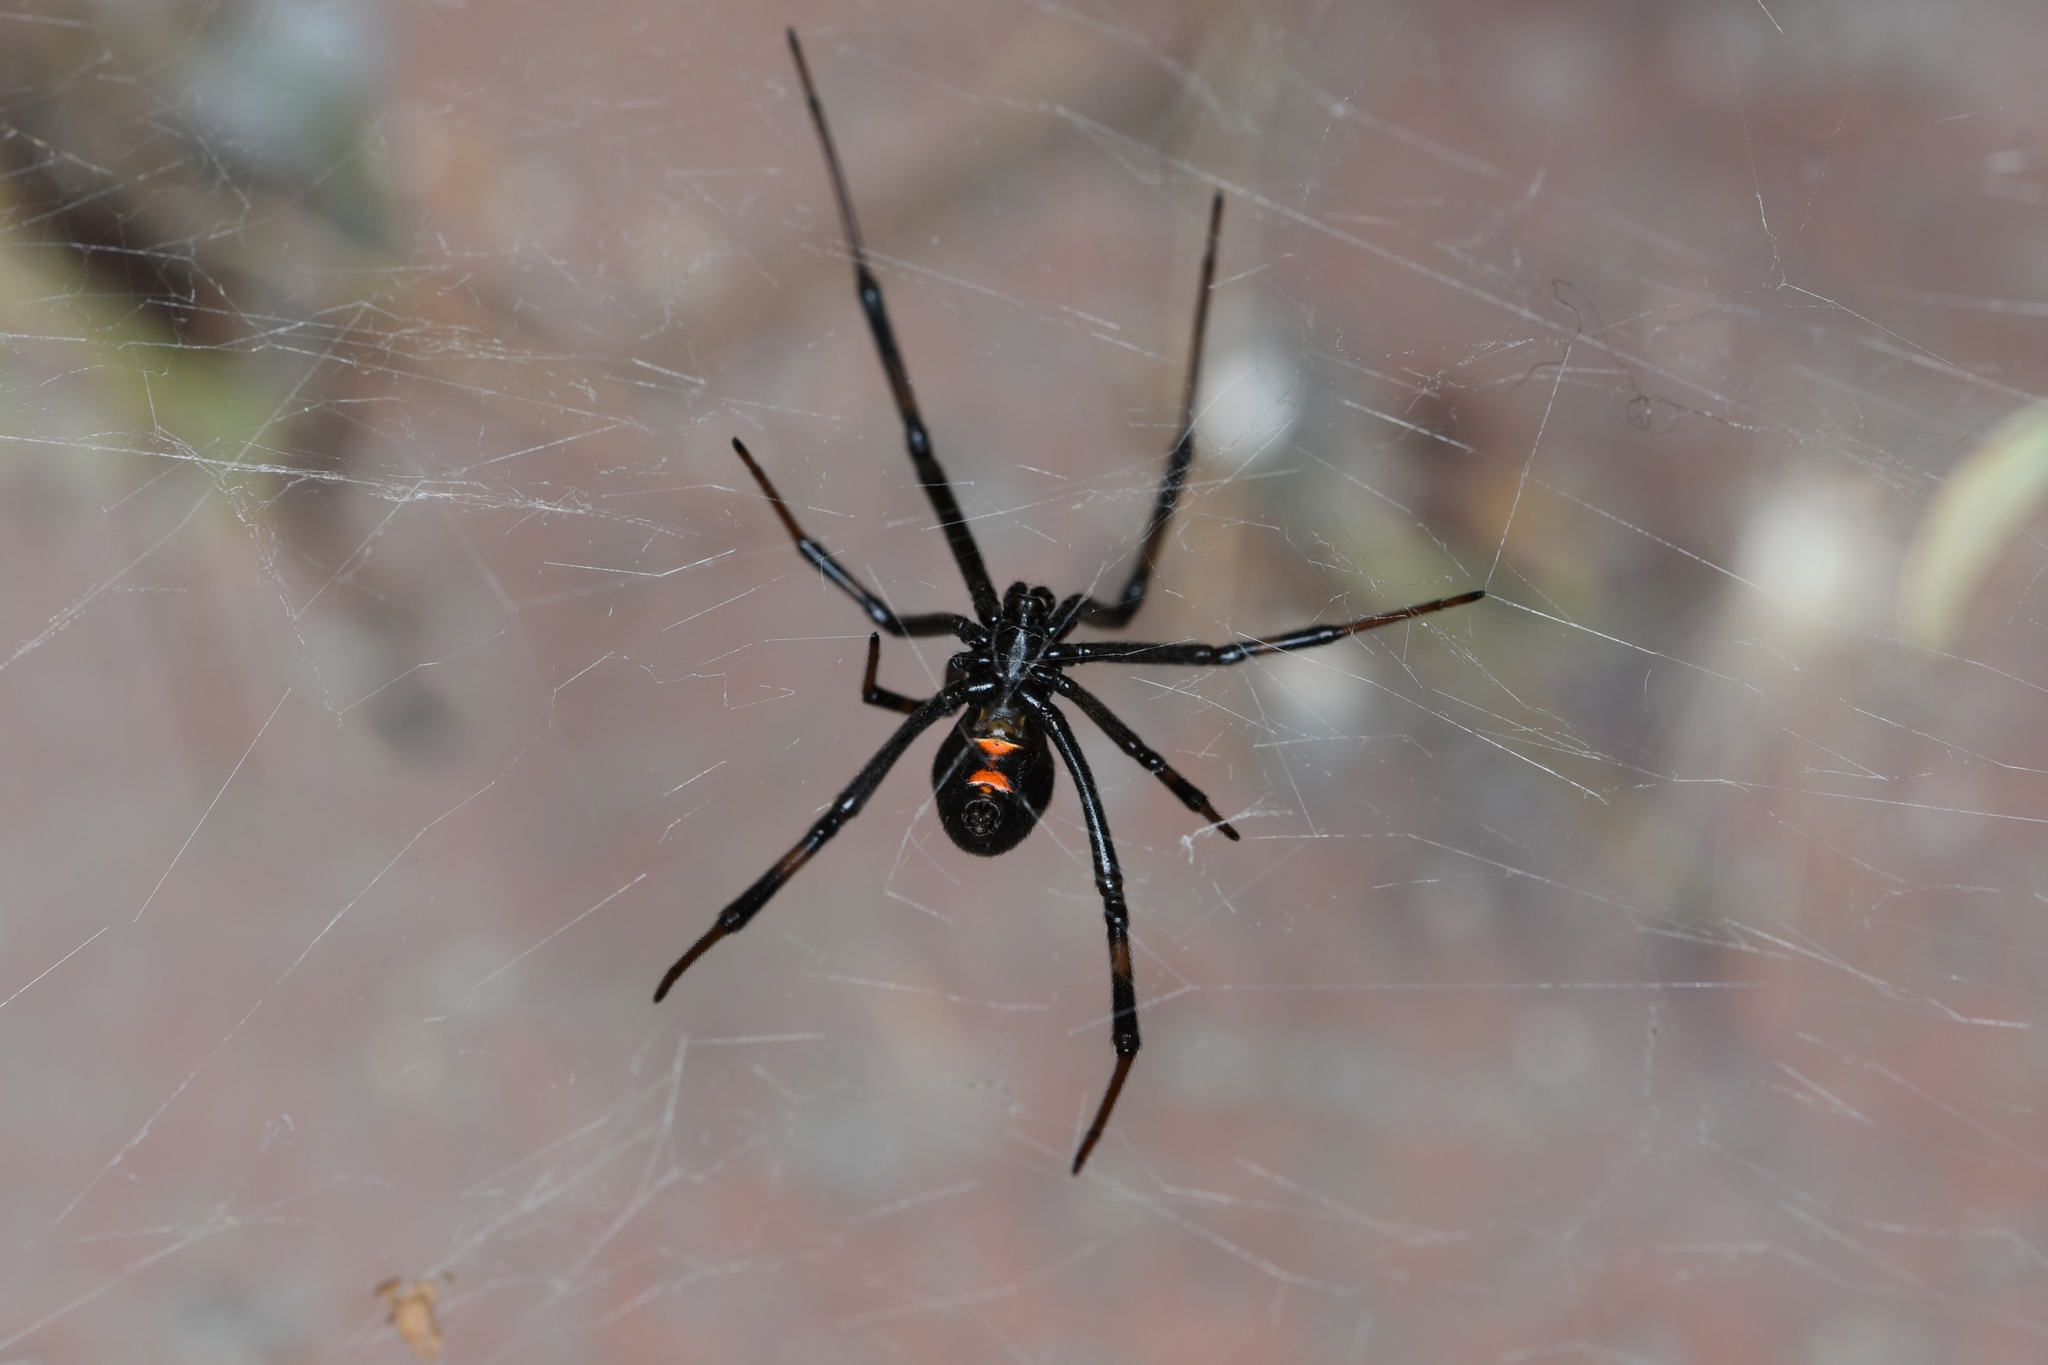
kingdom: Animalia
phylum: Arthropoda
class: Arachnida
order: Araneae
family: Theridiidae
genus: Latrodectus
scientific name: Latrodectus hesperus
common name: Western black widow
